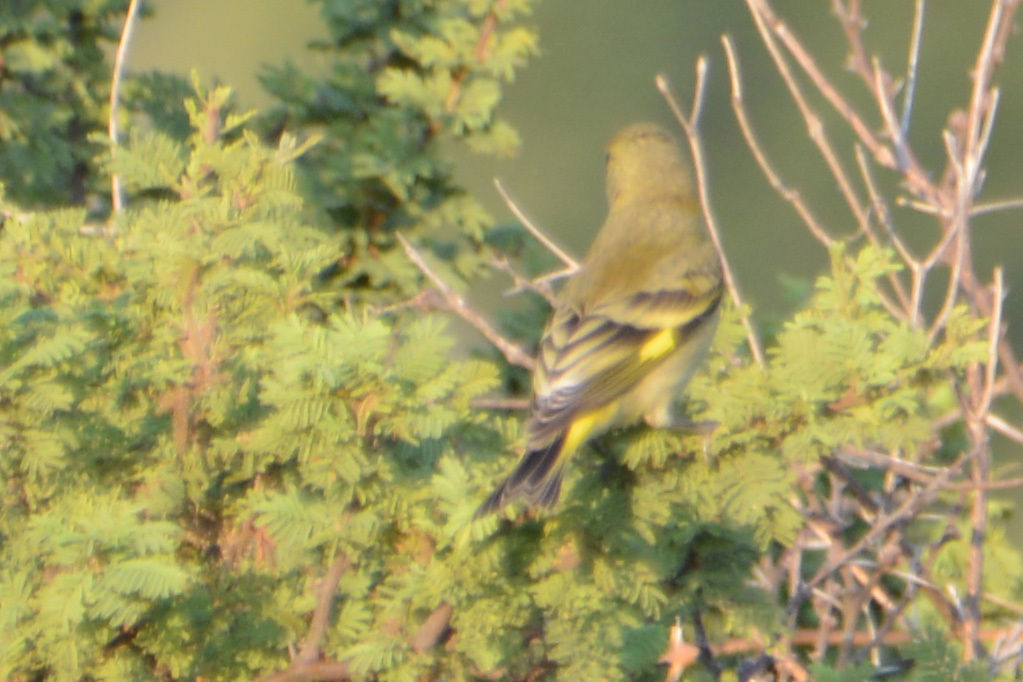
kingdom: Animalia
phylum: Chordata
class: Aves
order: Passeriformes
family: Fringillidae
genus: Spinus
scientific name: Spinus magellanicus
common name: Hooded siskin
